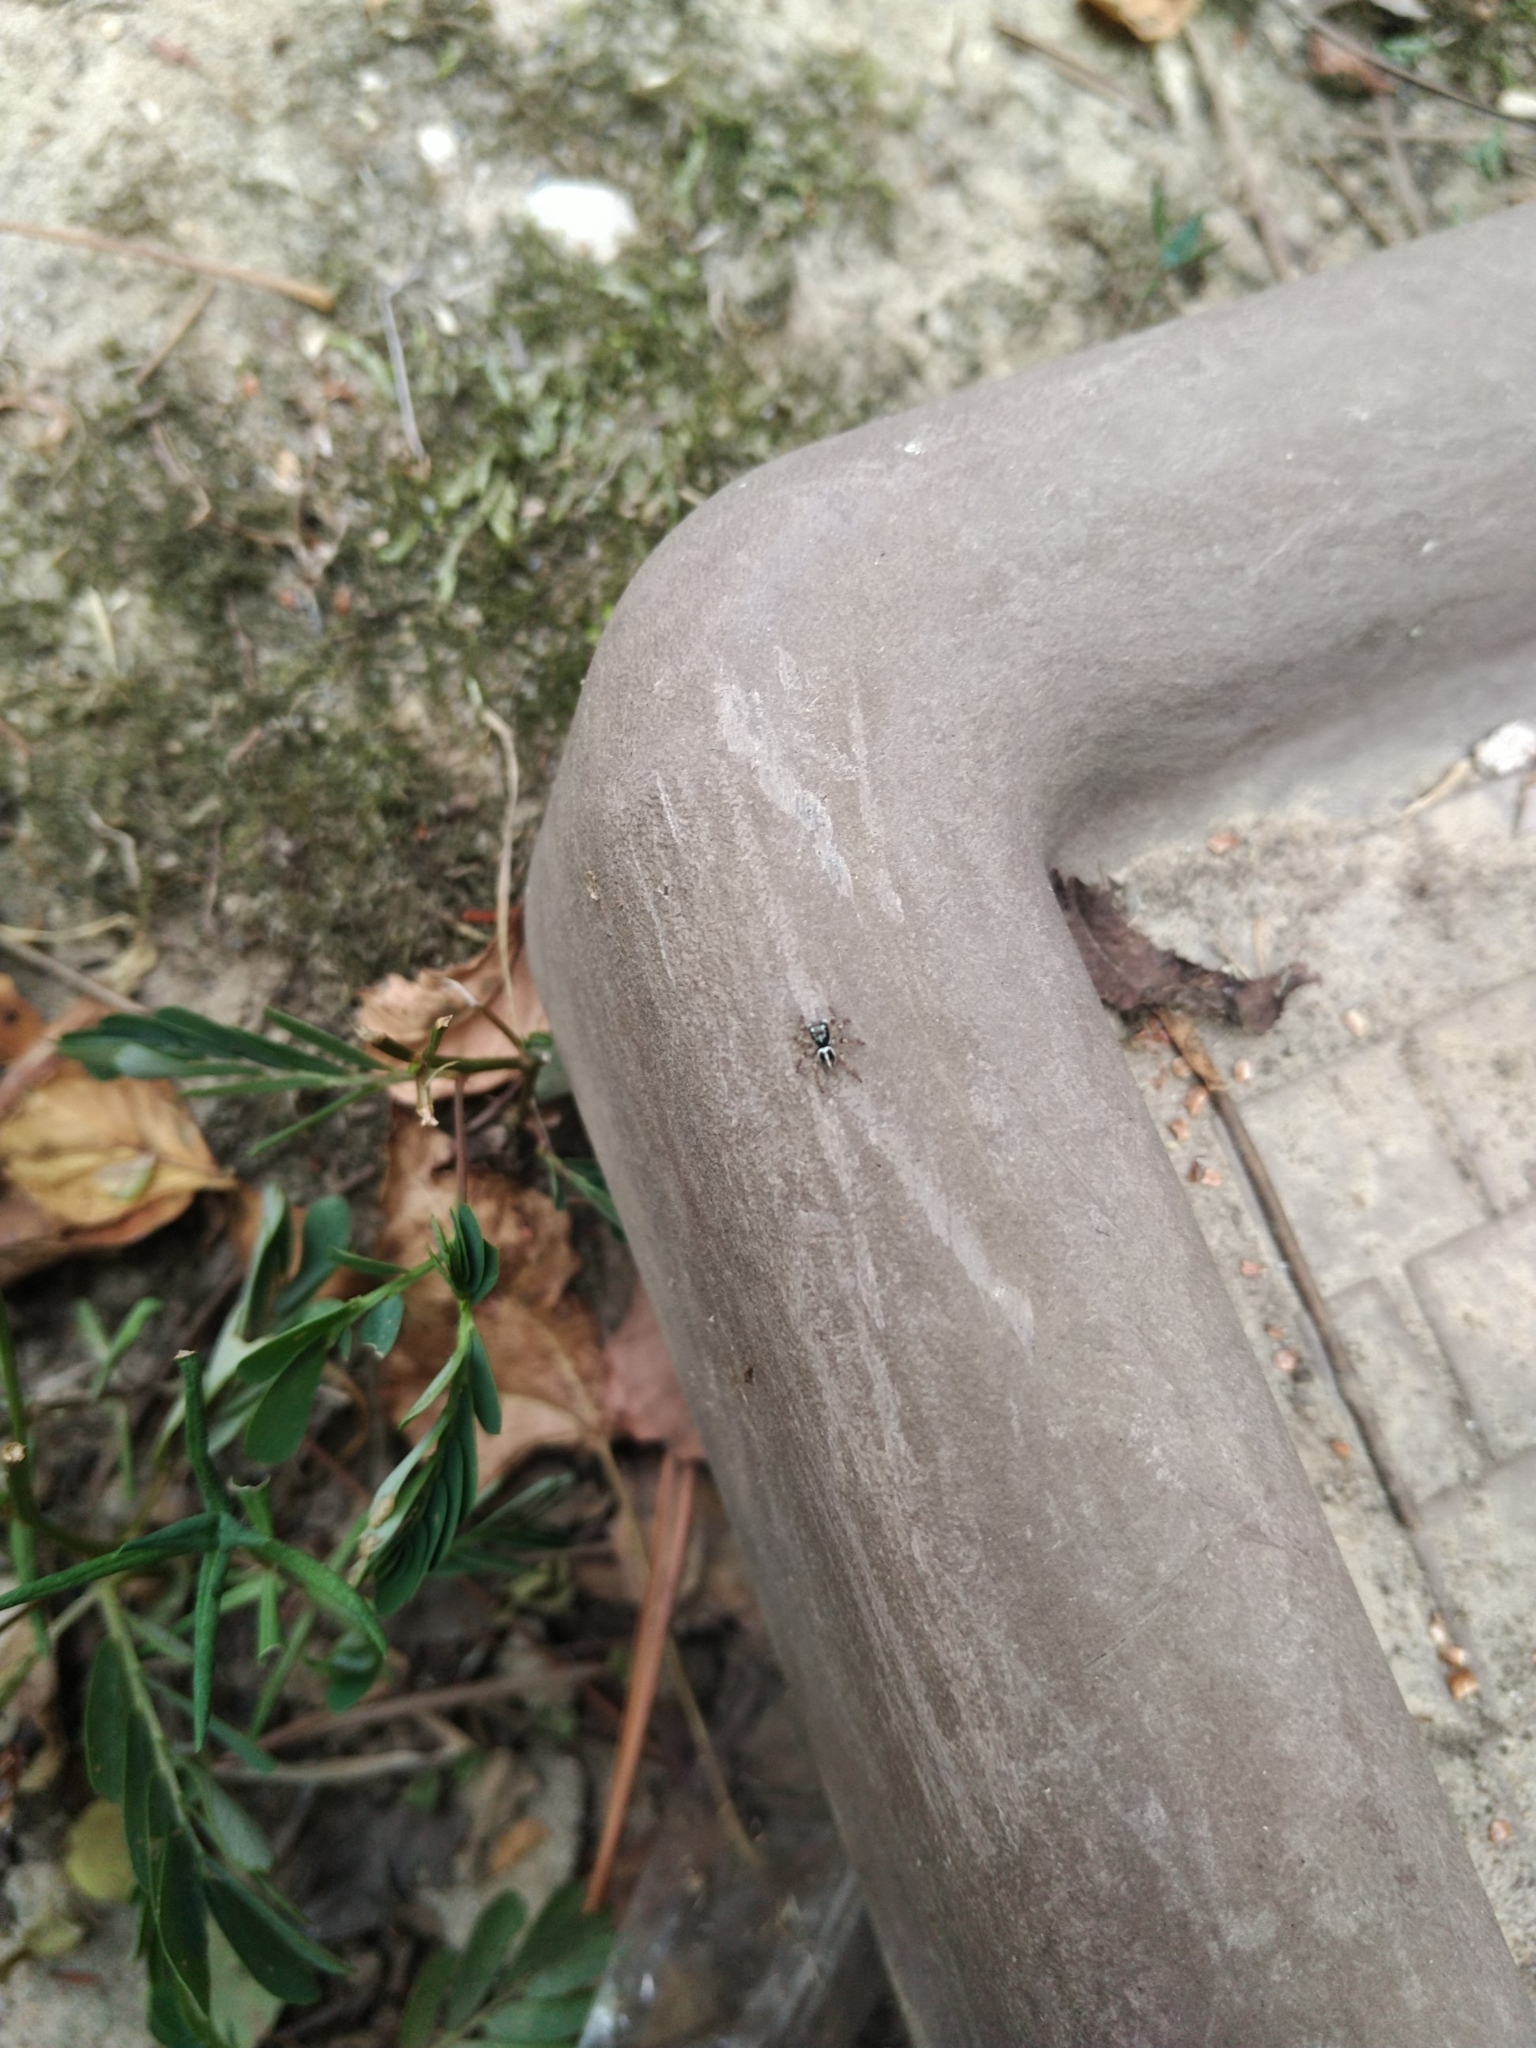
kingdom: Animalia
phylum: Arthropoda
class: Arachnida
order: Araneae
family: Salticidae
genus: Anasaitis
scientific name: Anasaitis canosa
